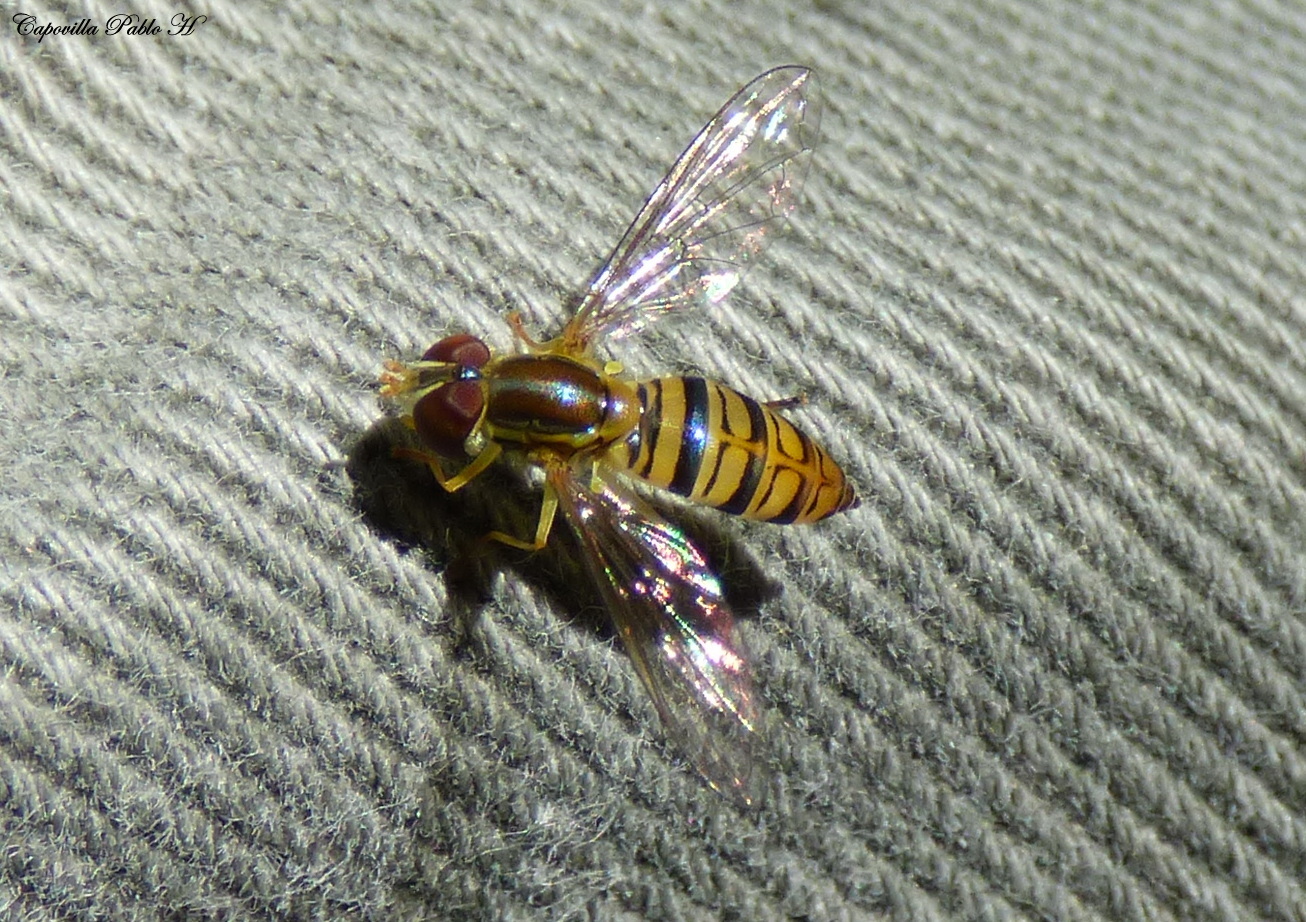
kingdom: Animalia
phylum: Arthropoda
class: Insecta
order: Diptera
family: Syrphidae
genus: Toxomerus
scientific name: Toxomerus politus
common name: Maize calligrapher
